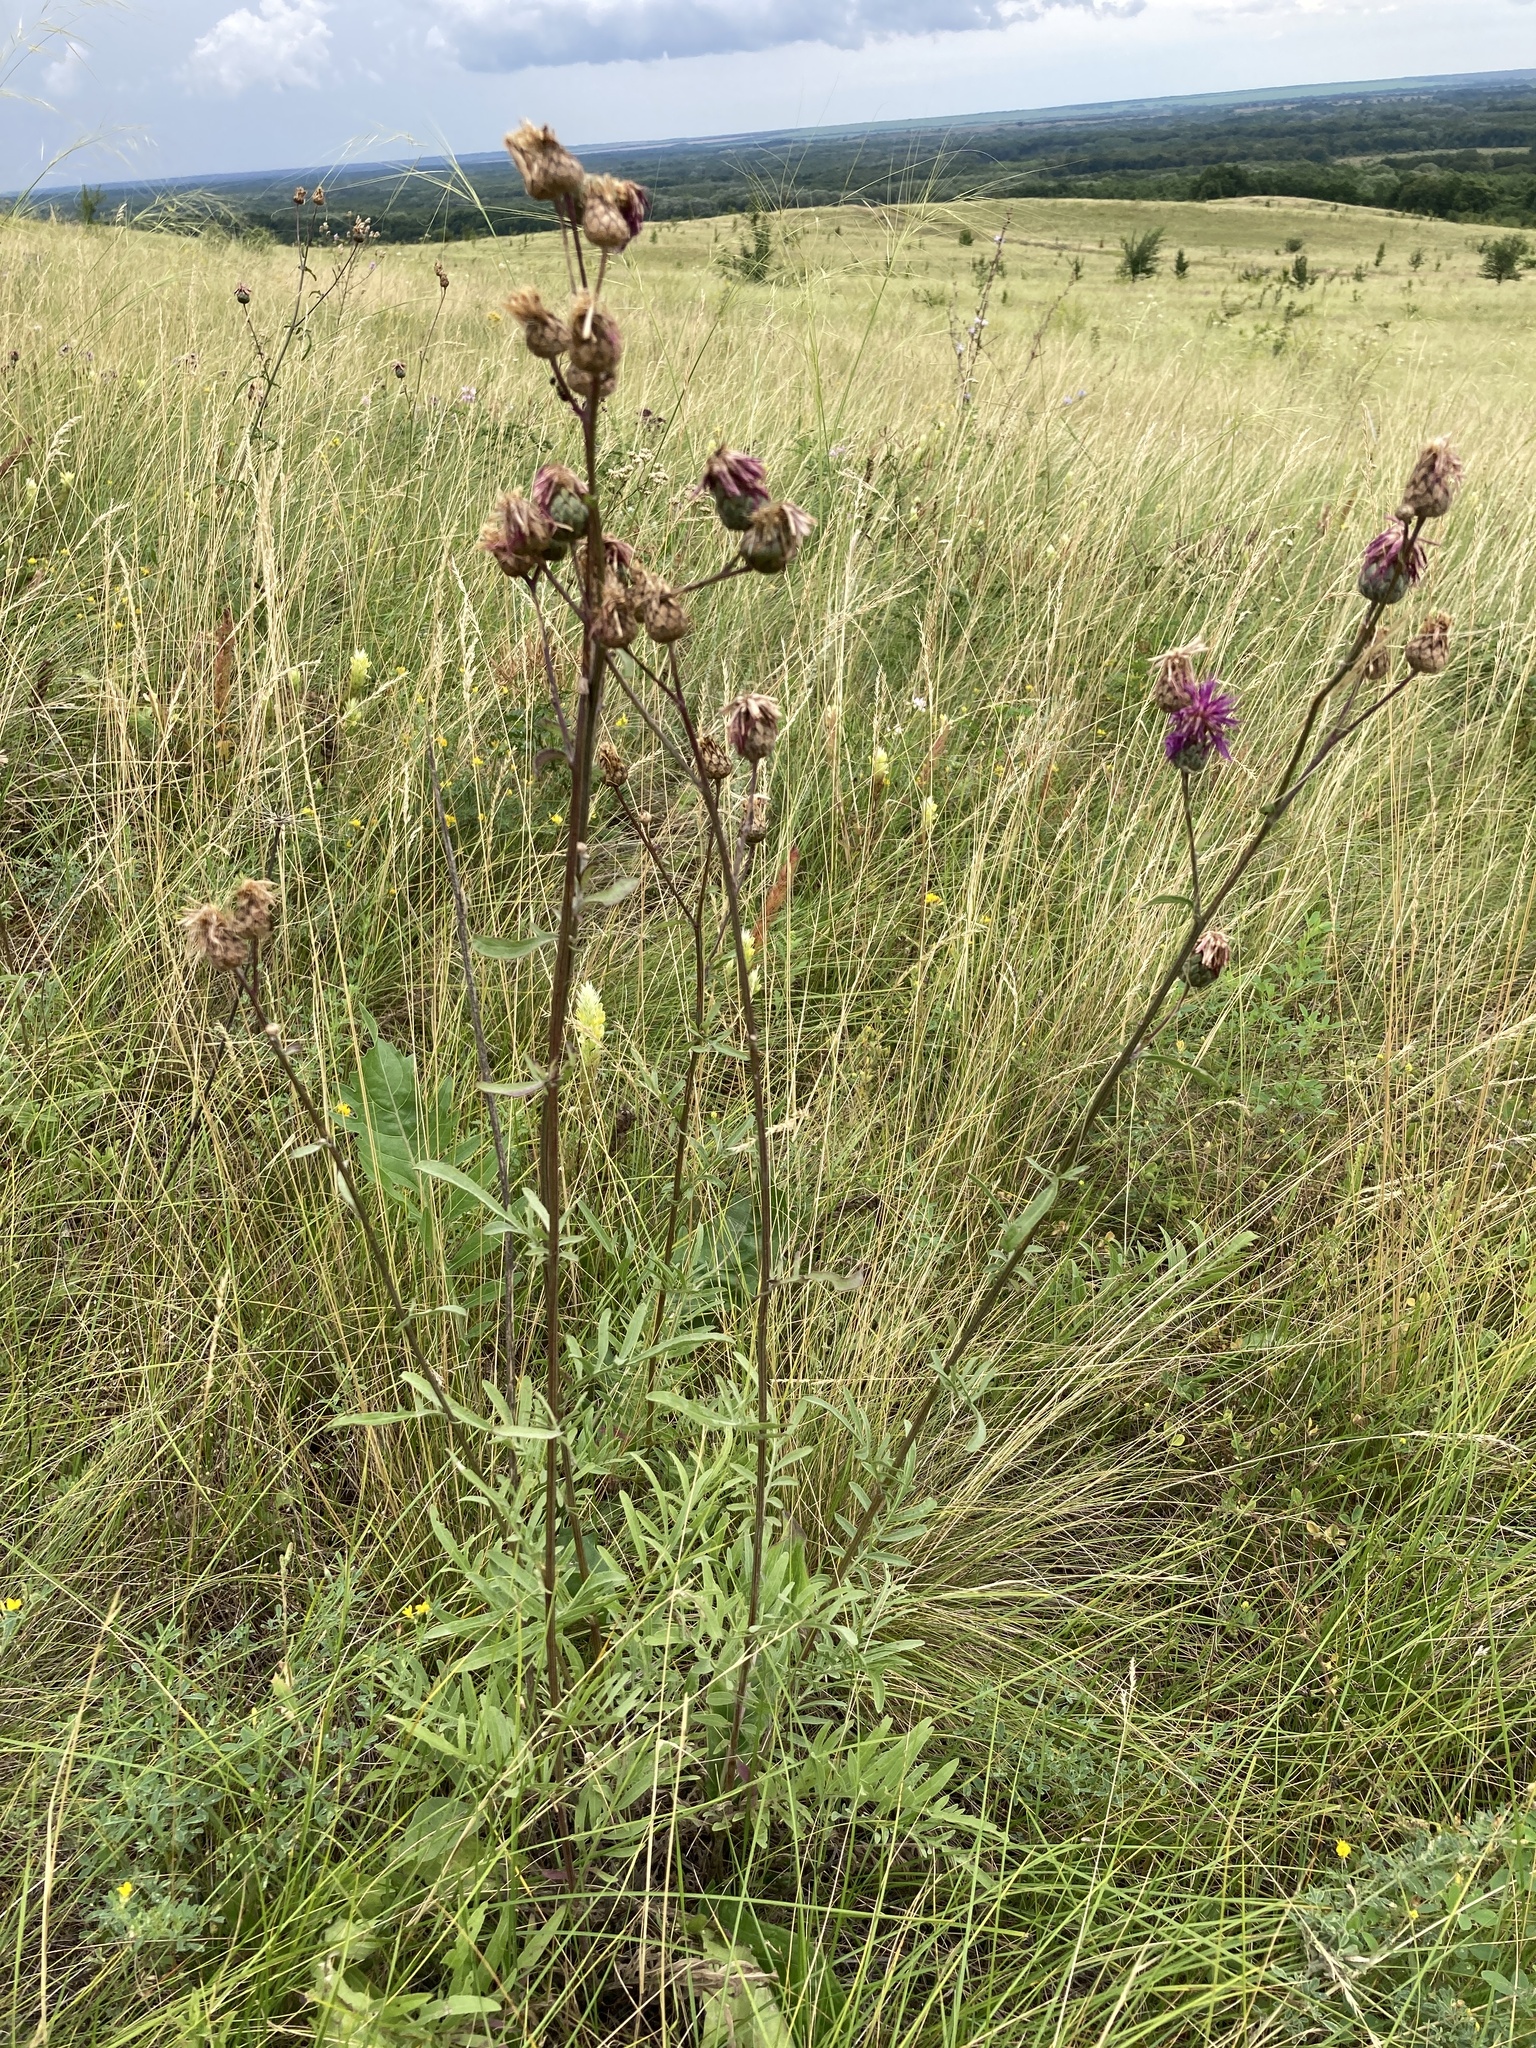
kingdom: Plantae
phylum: Tracheophyta
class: Magnoliopsida
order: Asterales
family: Asteraceae
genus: Centaurea
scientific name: Centaurea scabiosa
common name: Greater knapweed
